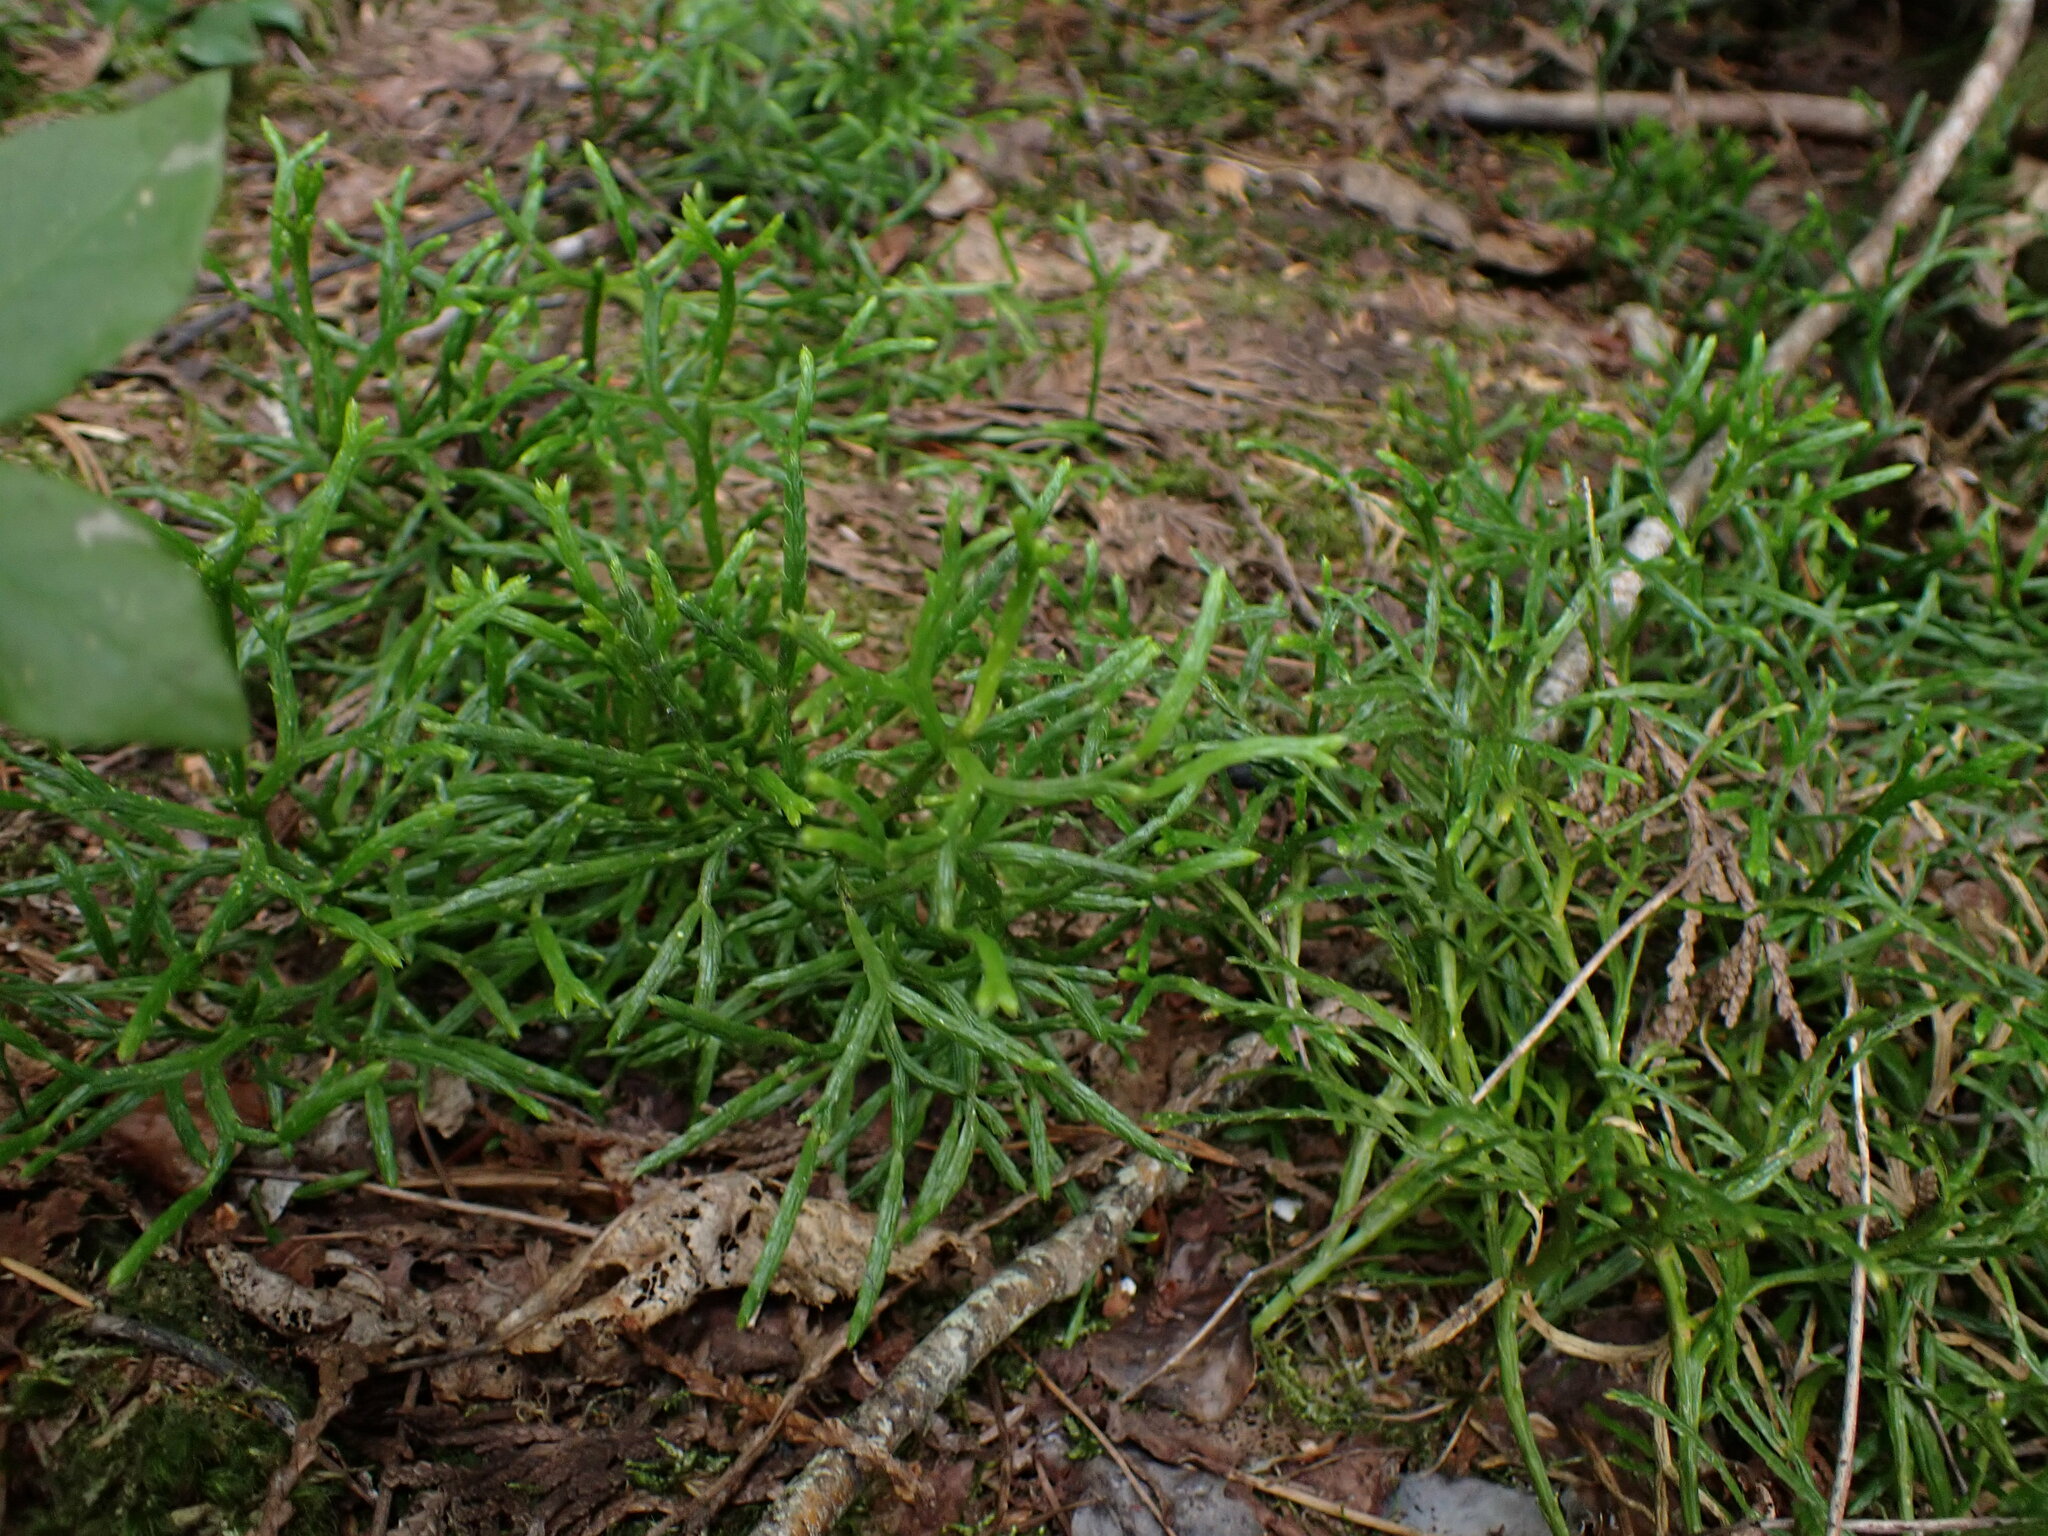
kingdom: Plantae
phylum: Tracheophyta
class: Lycopodiopsida
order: Lycopodiales
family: Lycopodiaceae
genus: Diphasiastrum
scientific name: Diphasiastrum complanatum
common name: Northern running-pine
